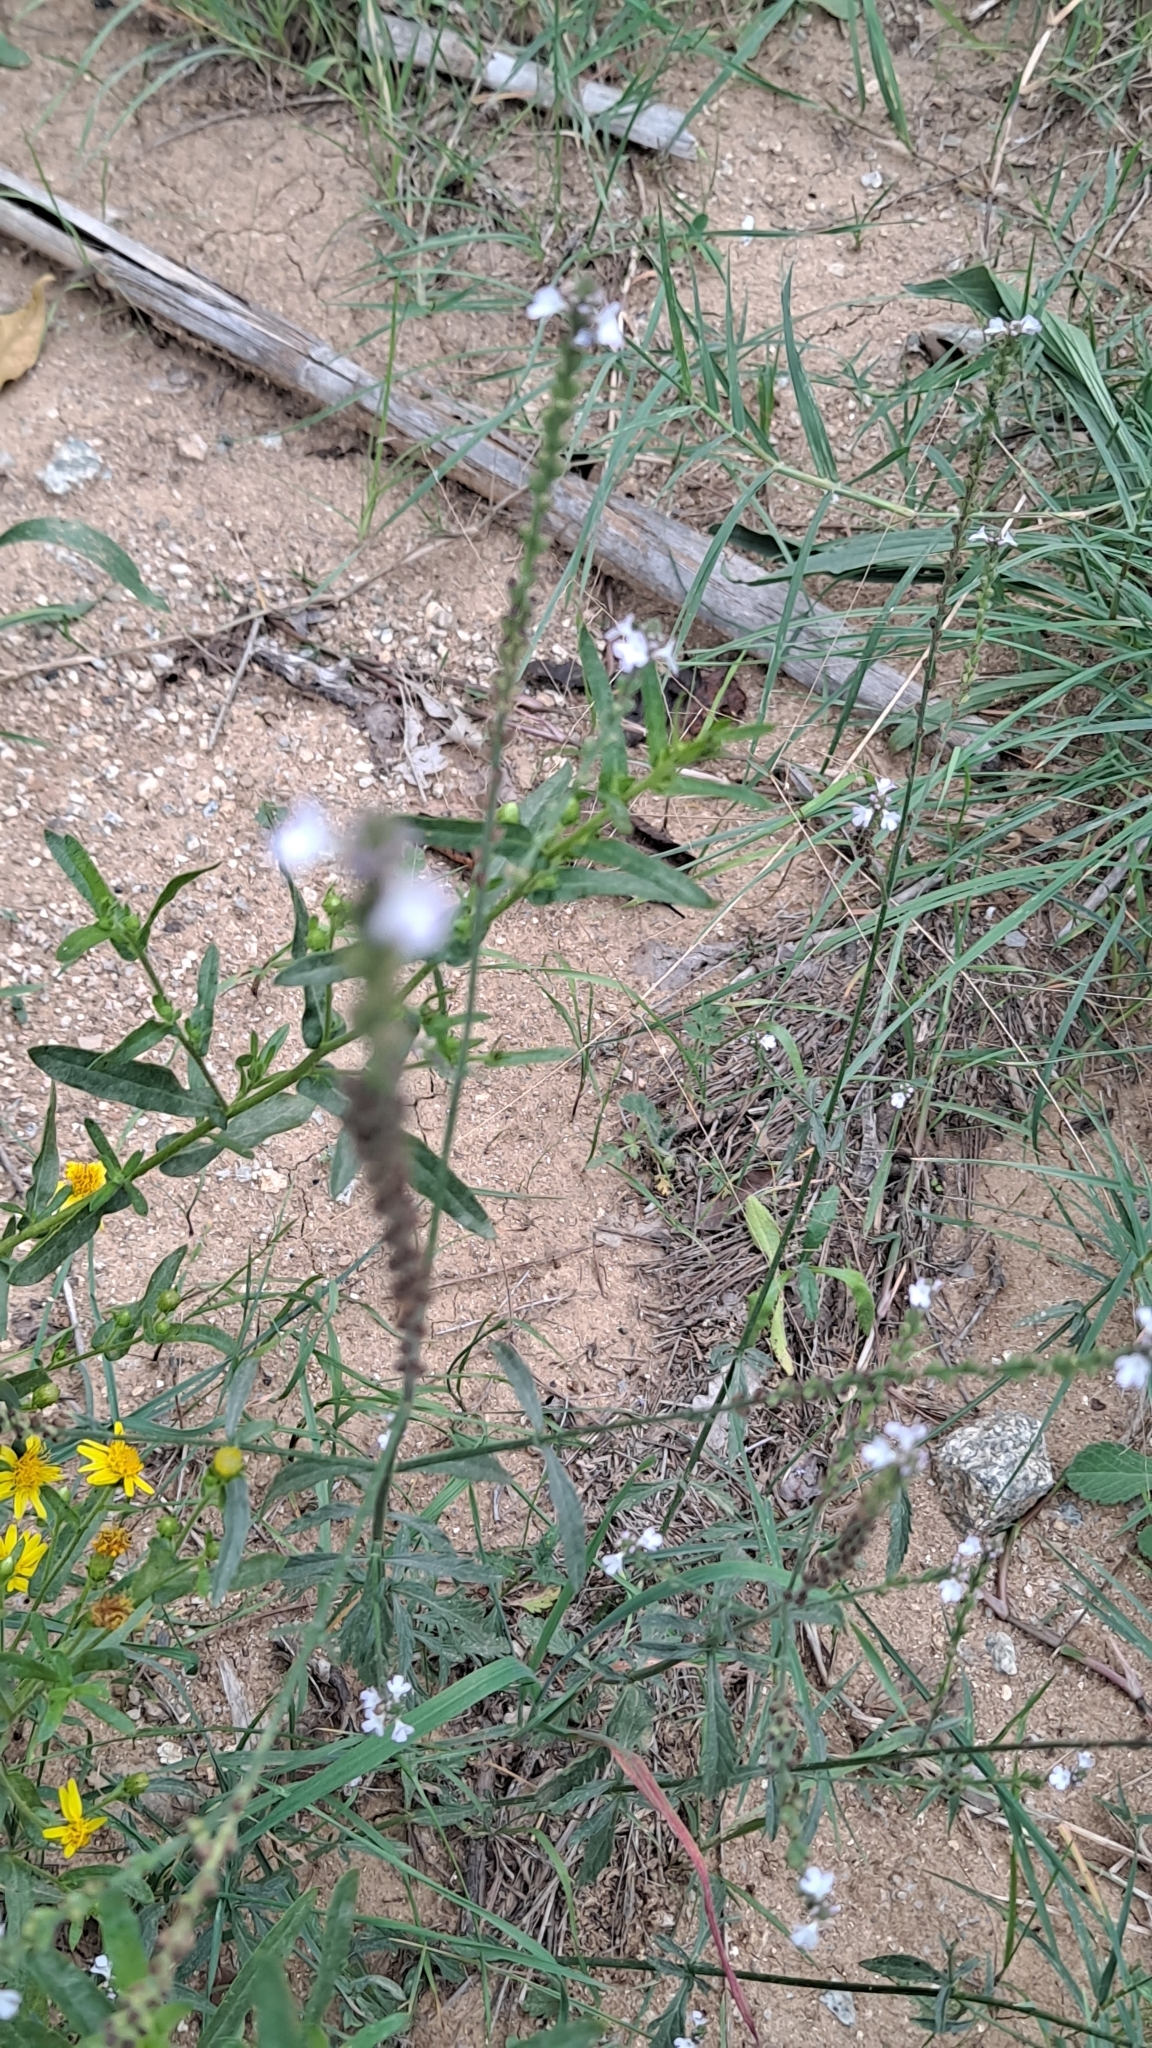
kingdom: Plantae
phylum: Tracheophyta
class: Magnoliopsida
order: Lamiales
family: Verbenaceae
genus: Verbena
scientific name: Verbena officinalis
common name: Vervain
